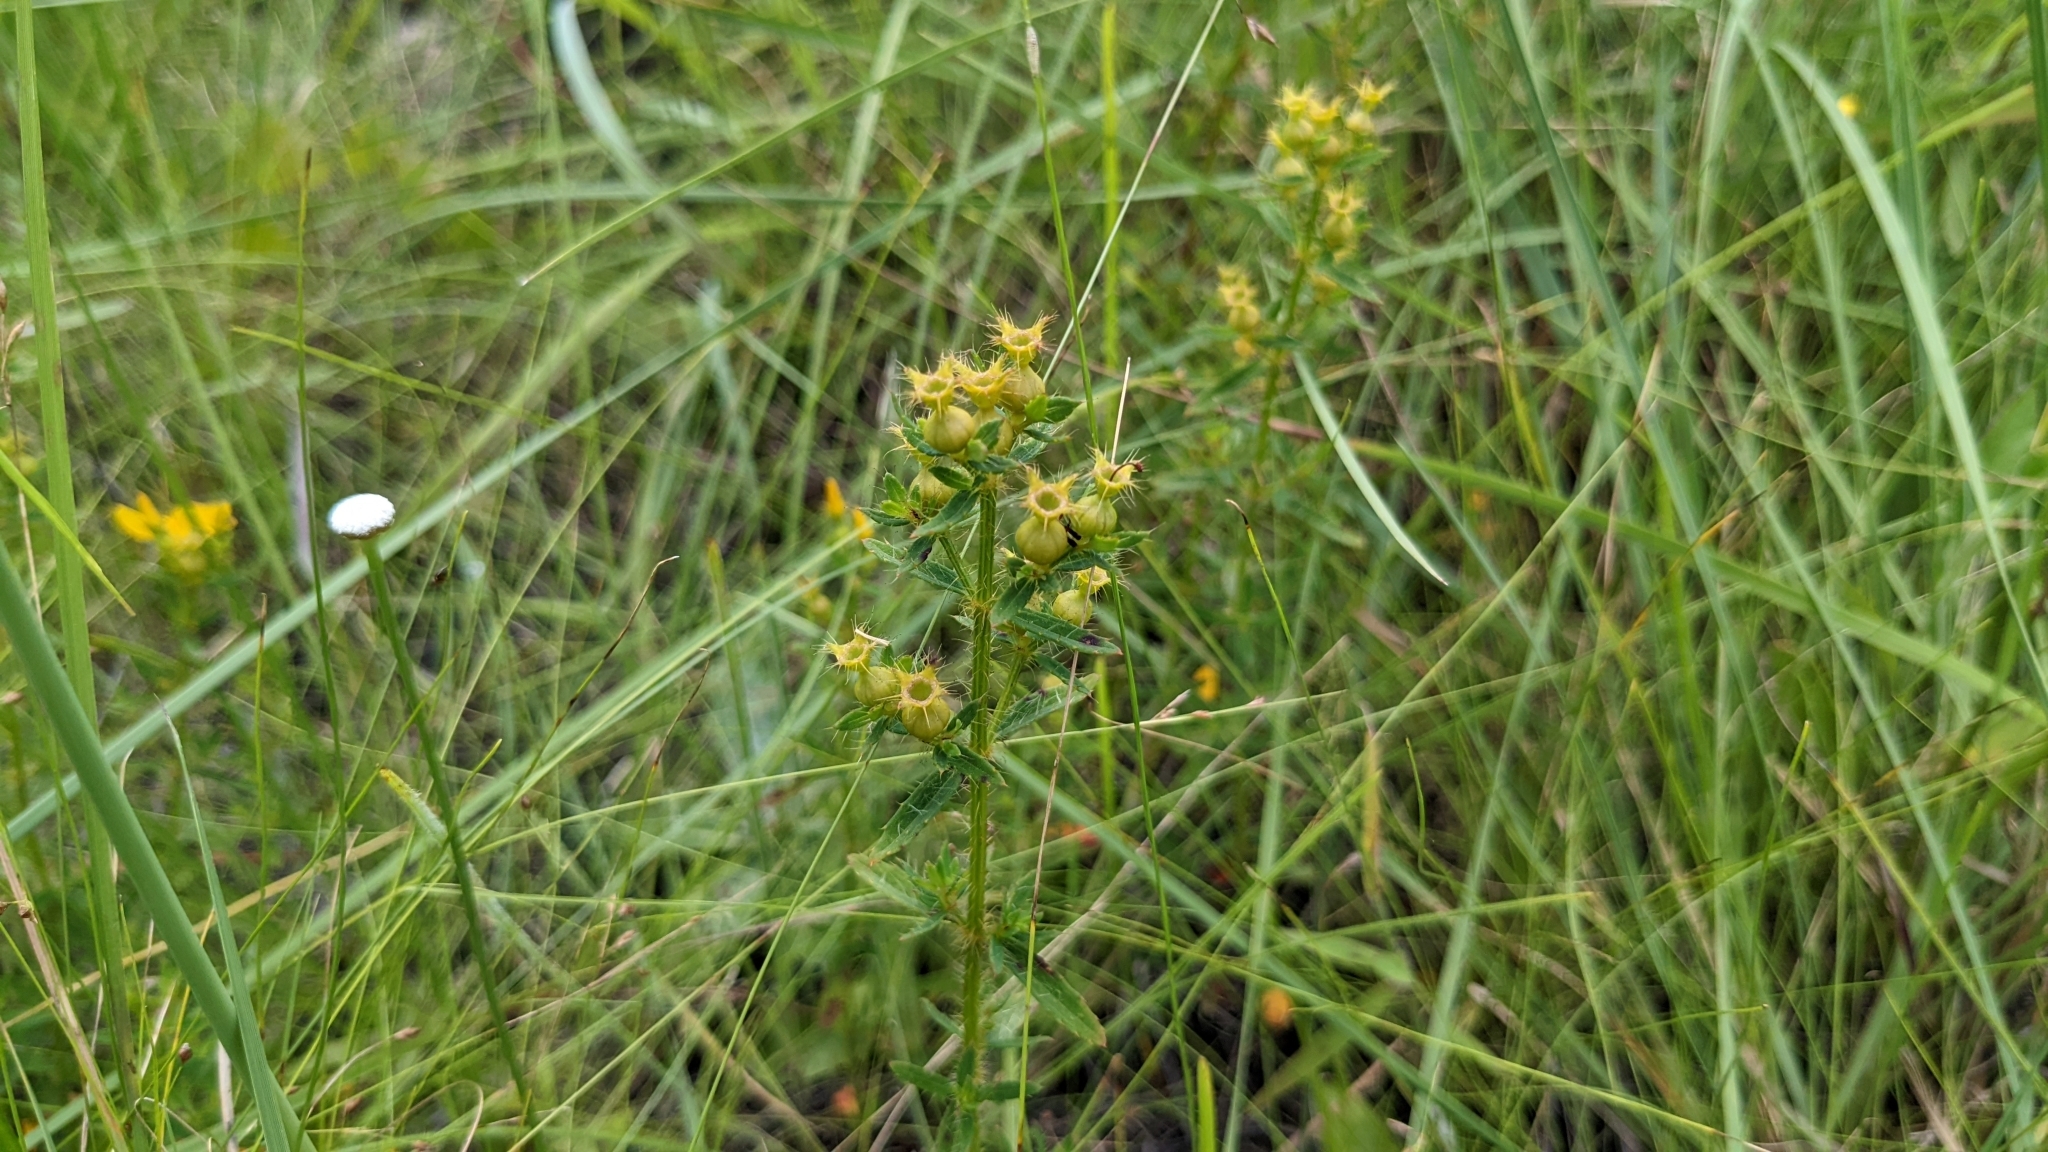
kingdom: Plantae
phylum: Tracheophyta
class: Magnoliopsida
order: Myrtales
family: Melastomataceae
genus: Rhexia
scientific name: Rhexia lutea
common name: Golden meadow-beauty
